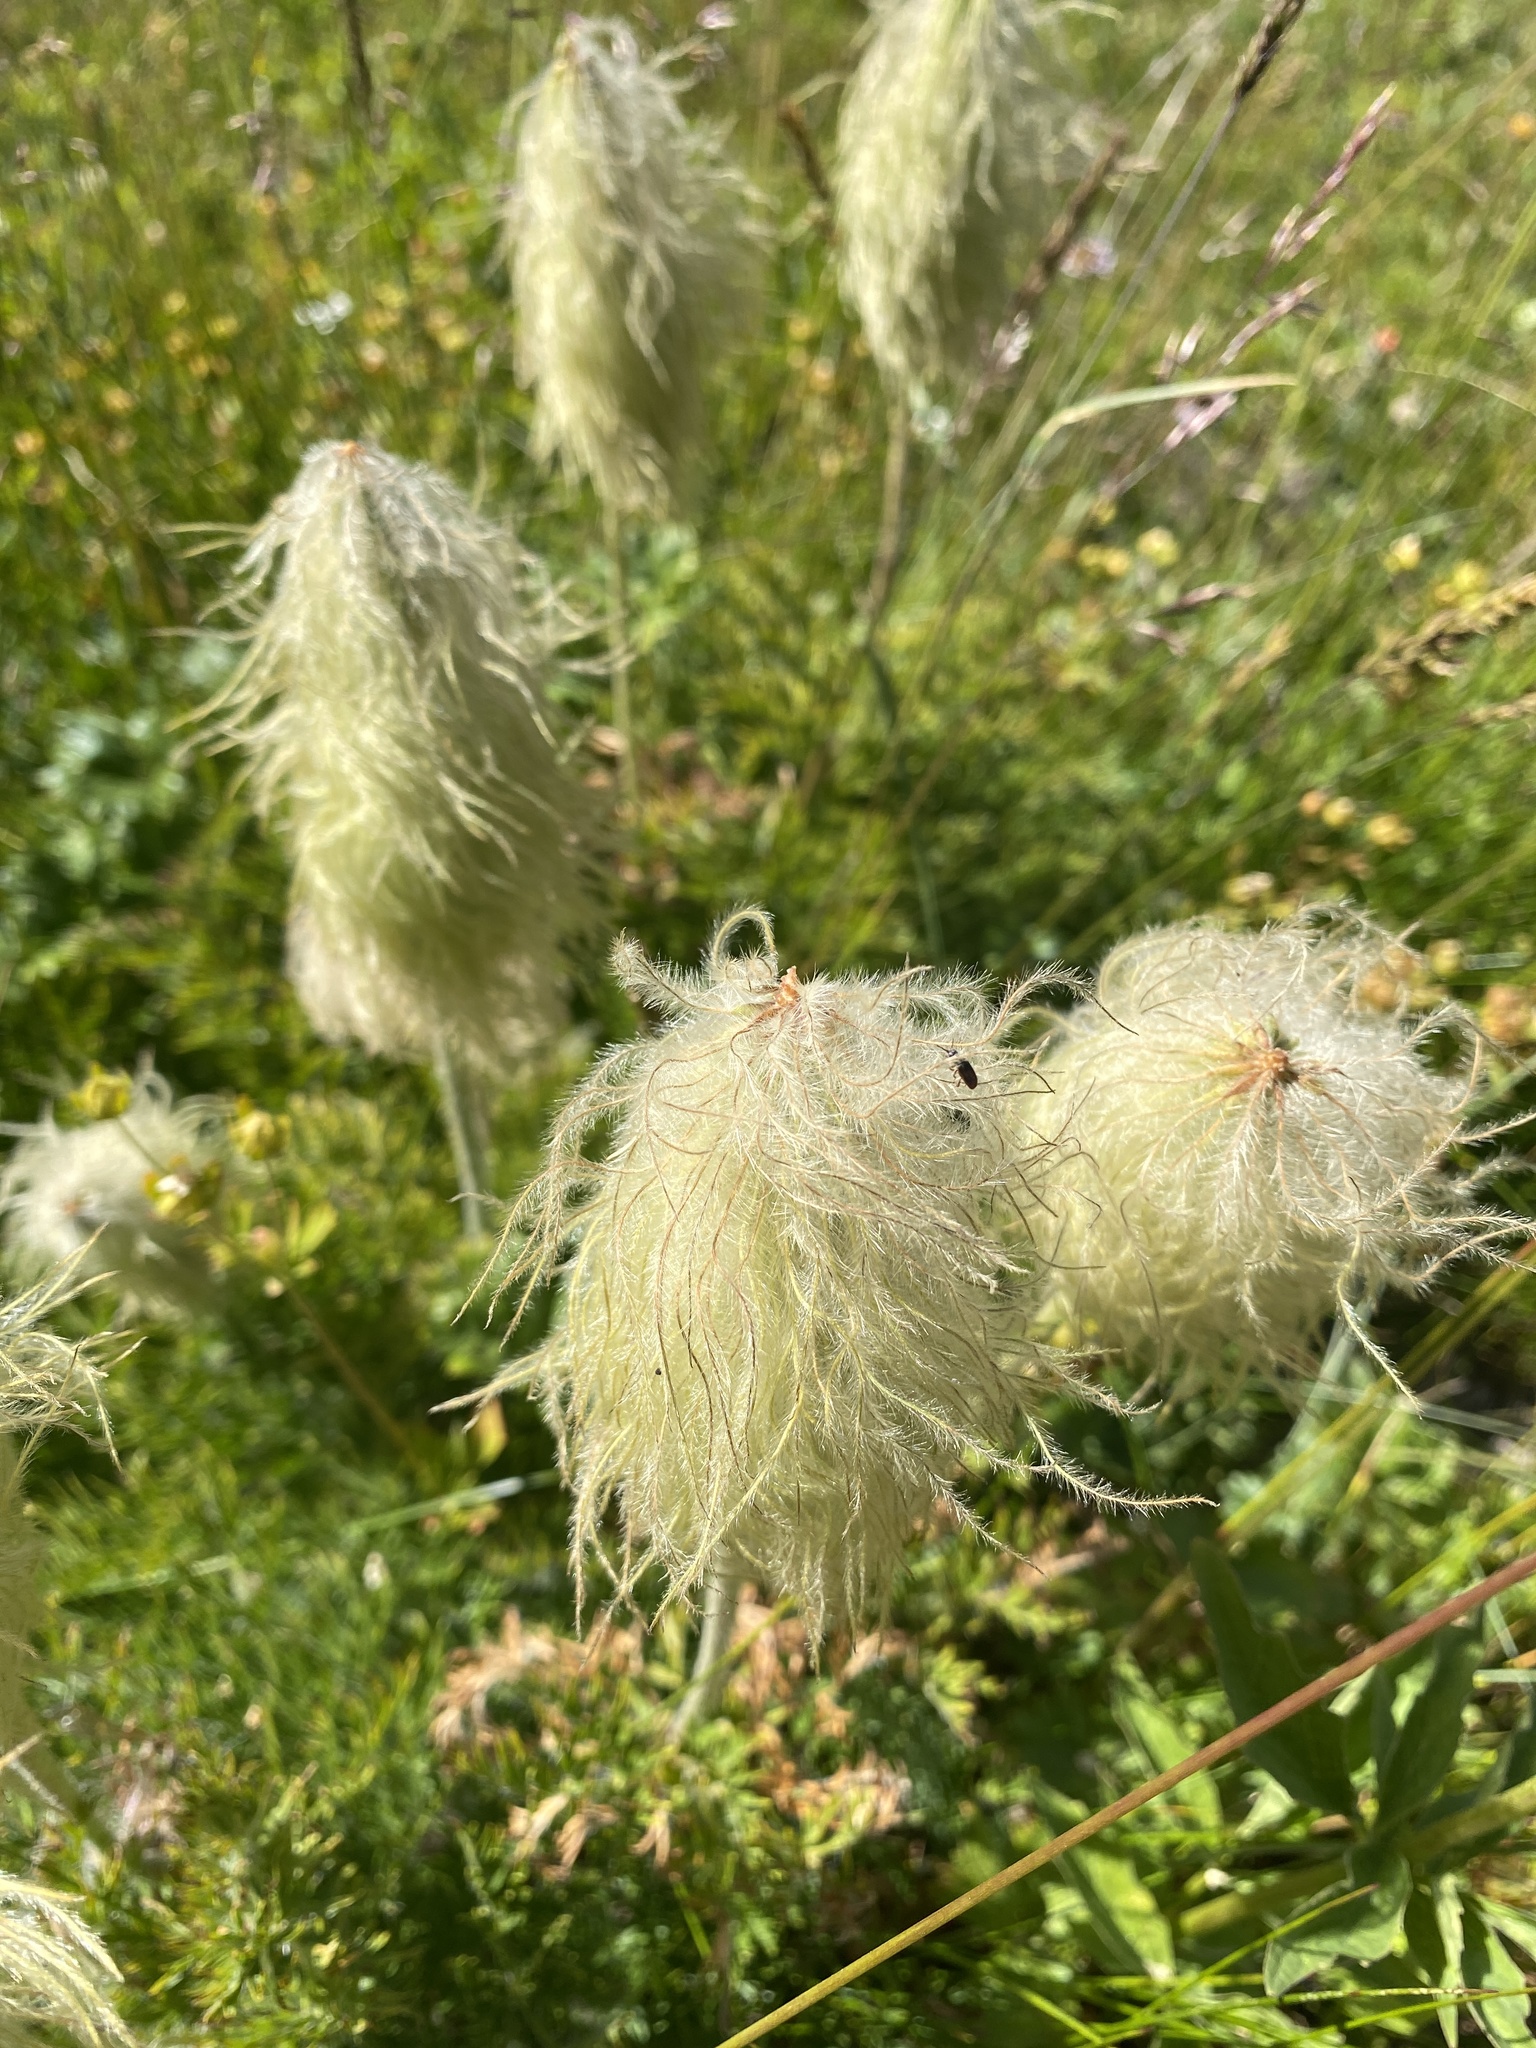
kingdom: Plantae
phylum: Tracheophyta
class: Magnoliopsida
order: Ranunculales
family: Ranunculaceae
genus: Pulsatilla
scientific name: Pulsatilla occidentalis
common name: Mountain pasqueflower
